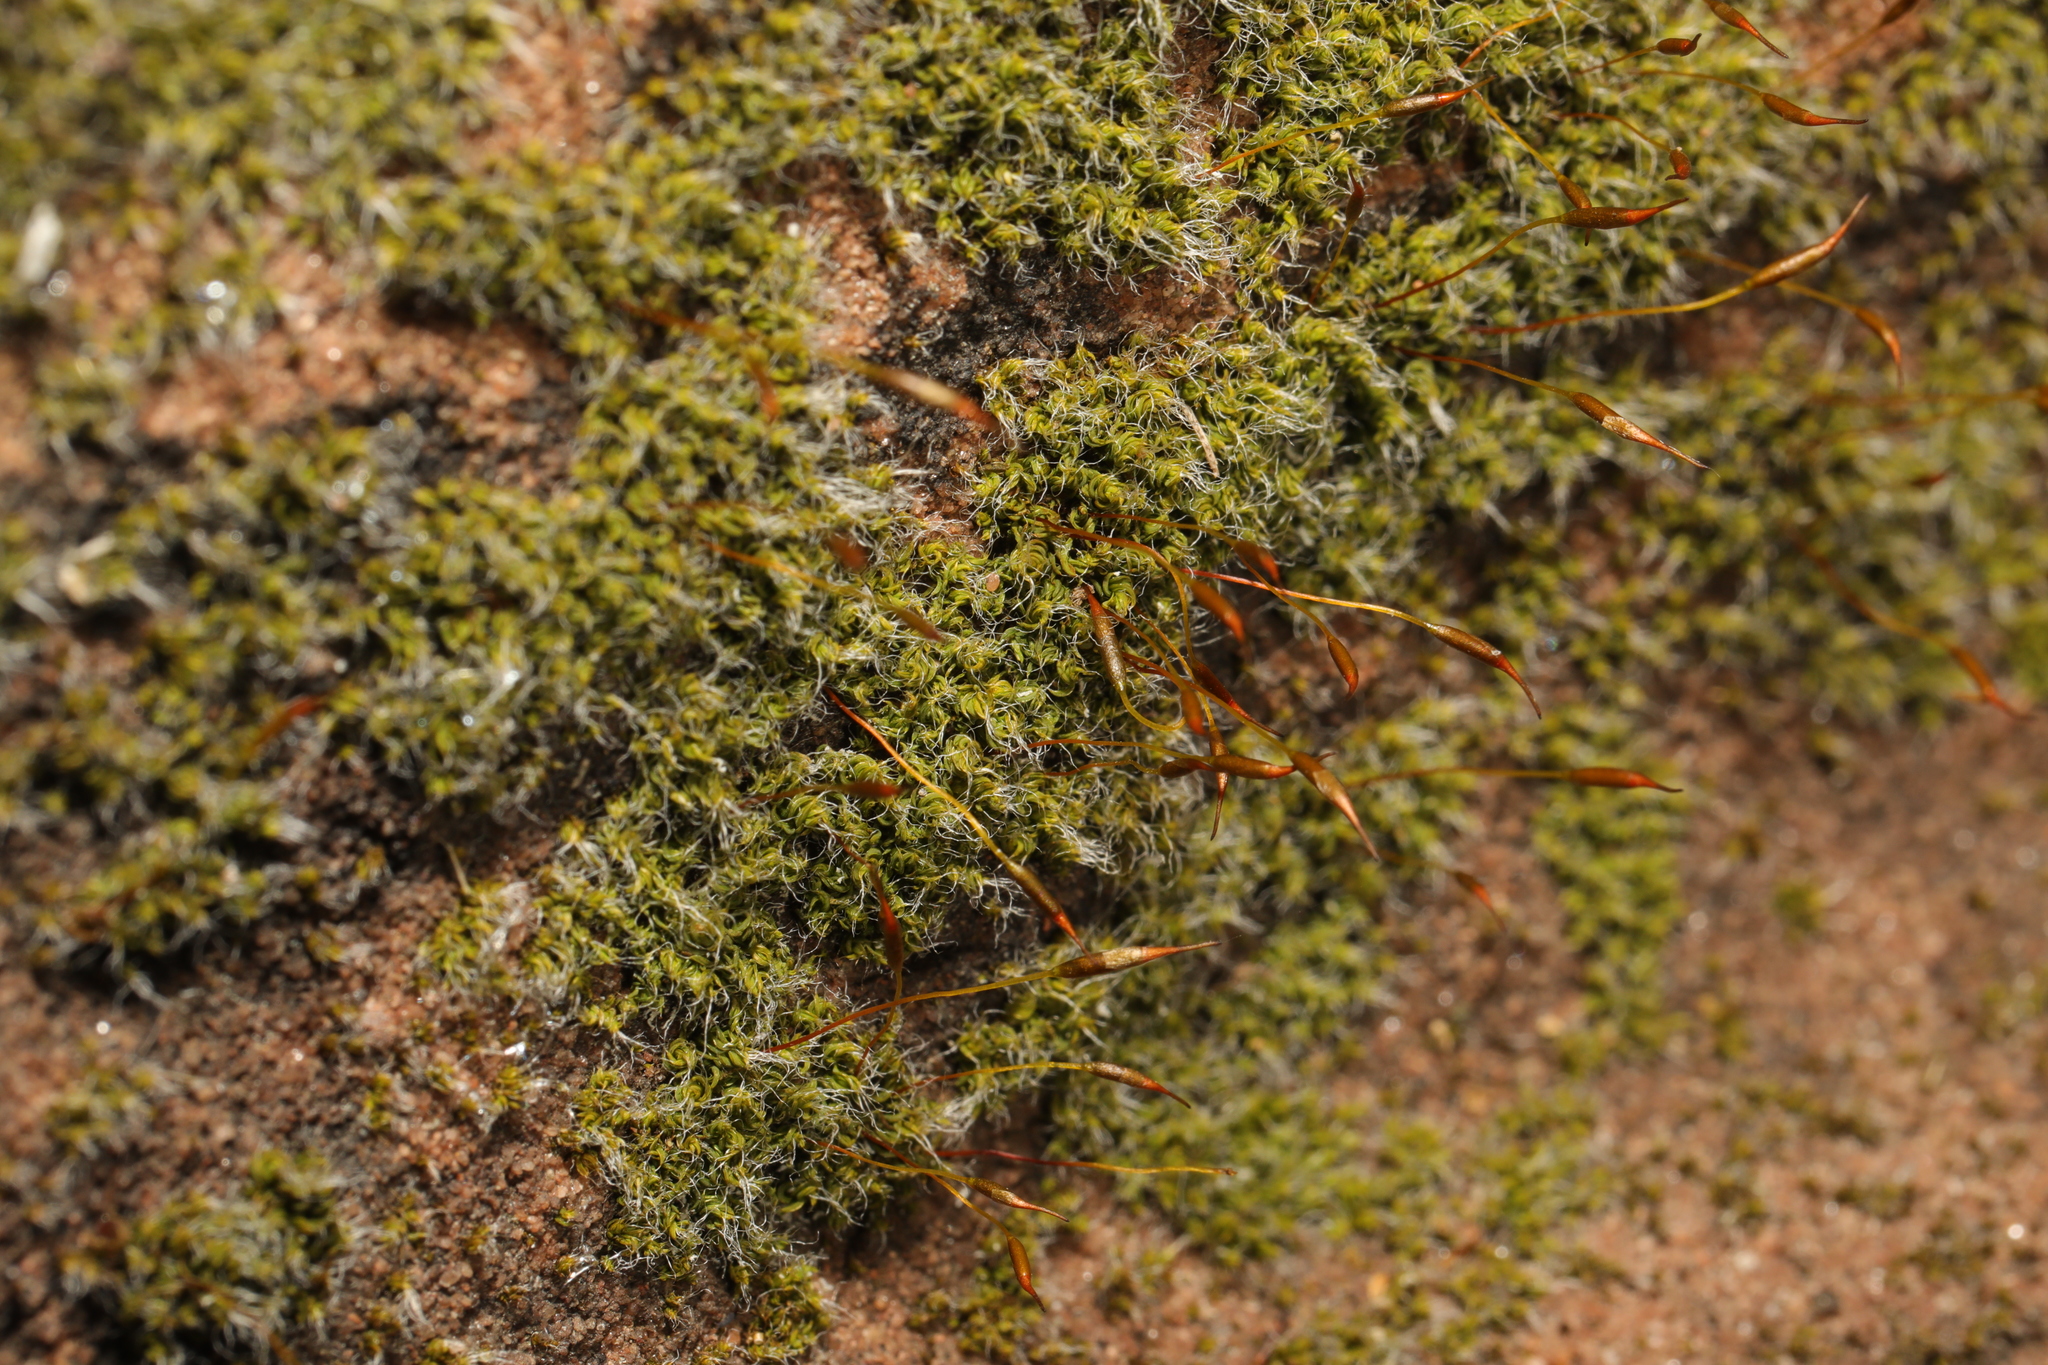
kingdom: Plantae
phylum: Bryophyta
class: Bryopsida
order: Pottiales
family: Pottiaceae
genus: Tortula
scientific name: Tortula muralis
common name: Wall screw-moss
